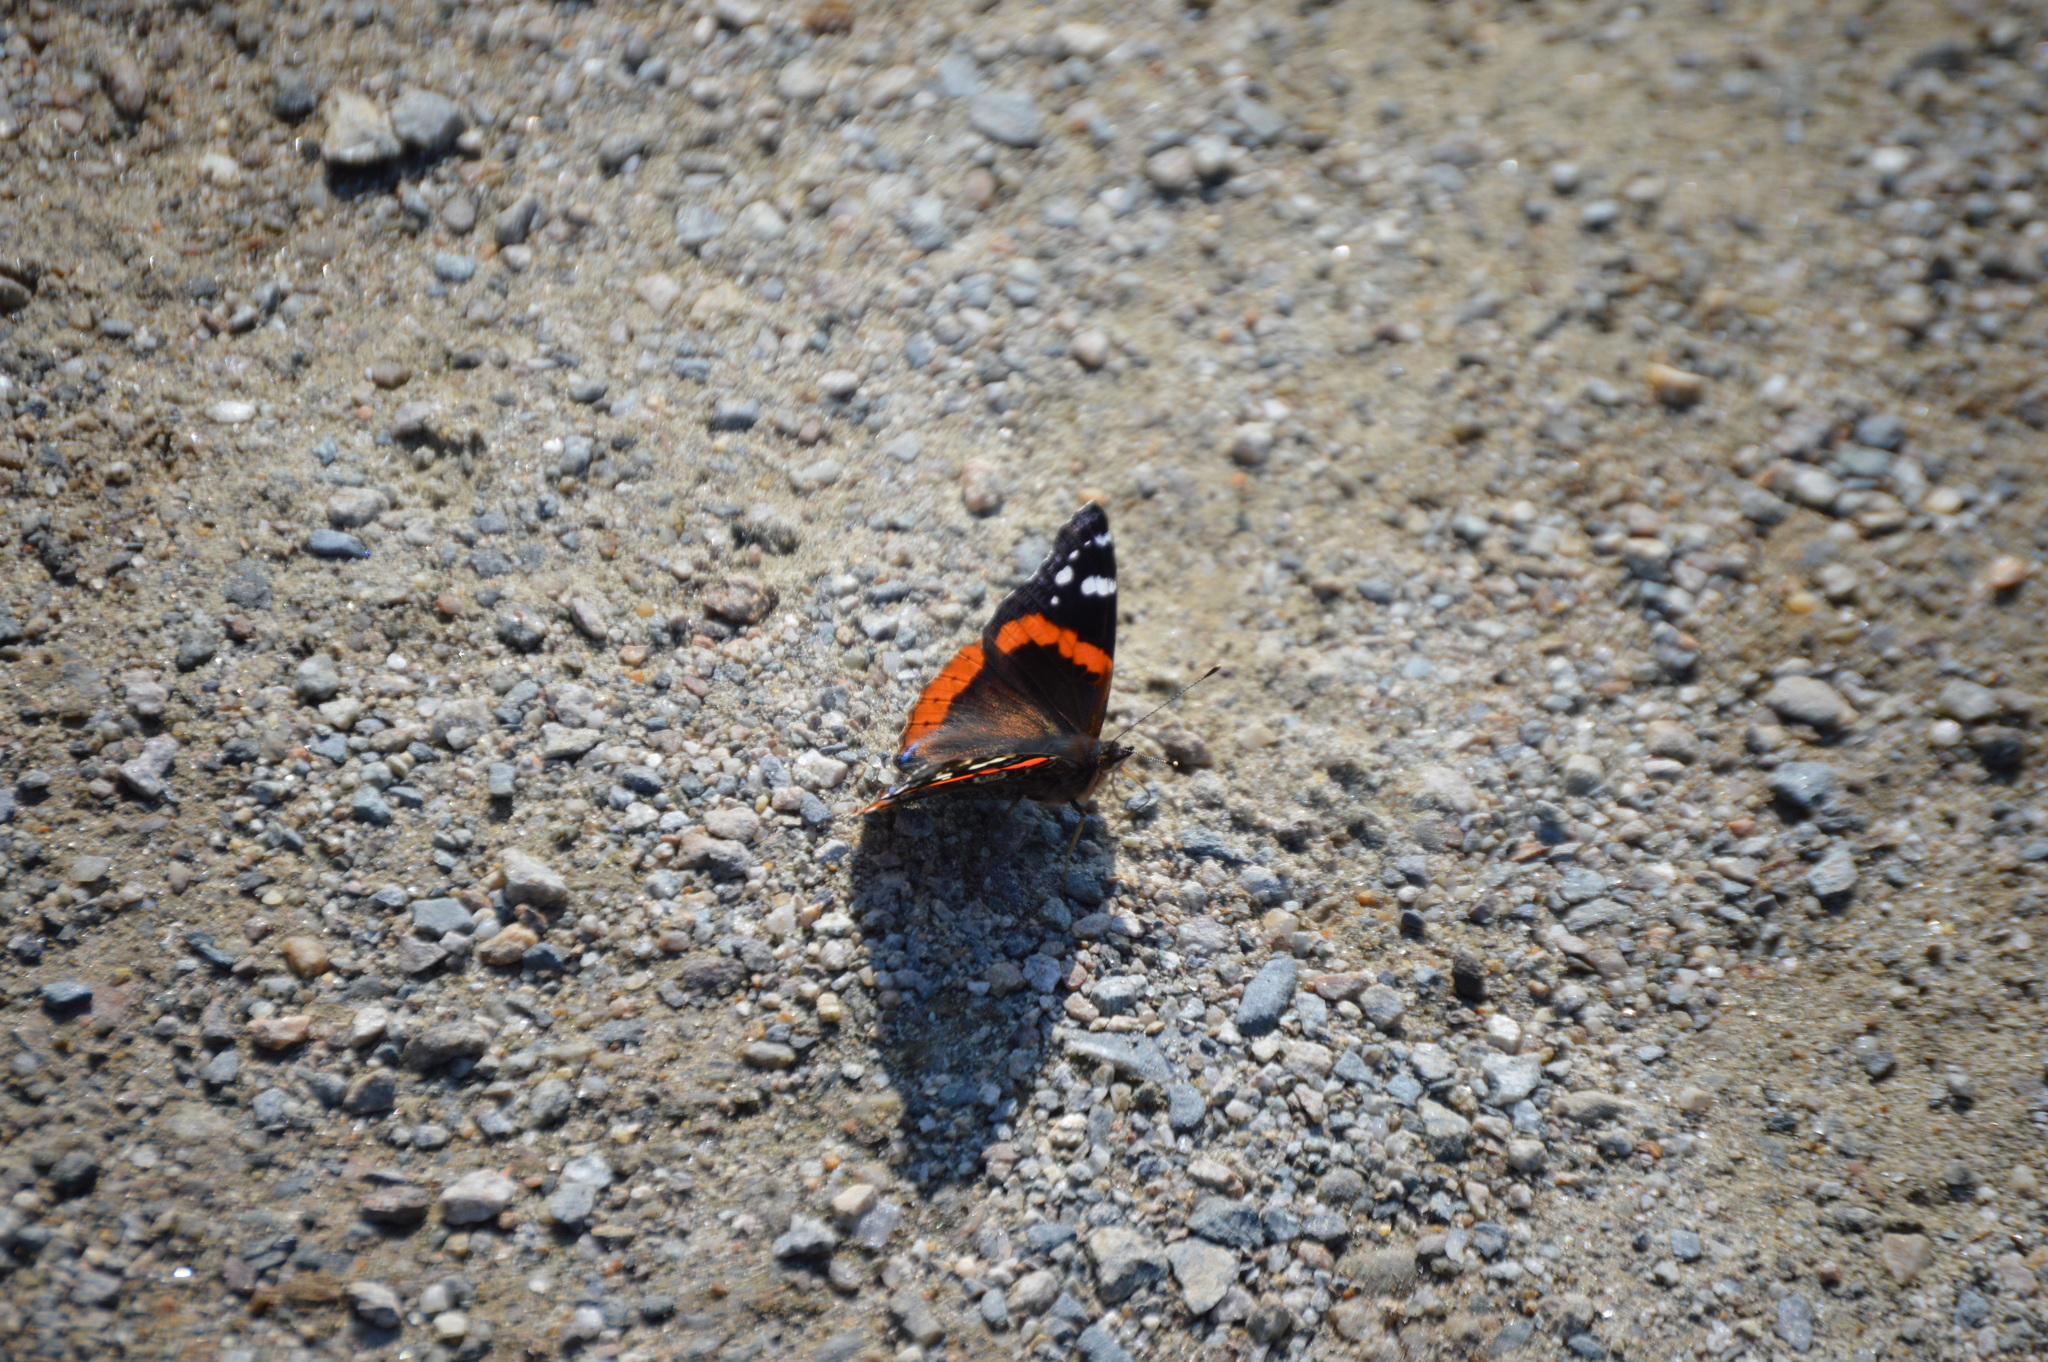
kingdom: Animalia
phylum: Arthropoda
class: Insecta
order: Lepidoptera
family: Nymphalidae
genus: Vanessa
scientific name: Vanessa atalanta
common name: Red admiral
